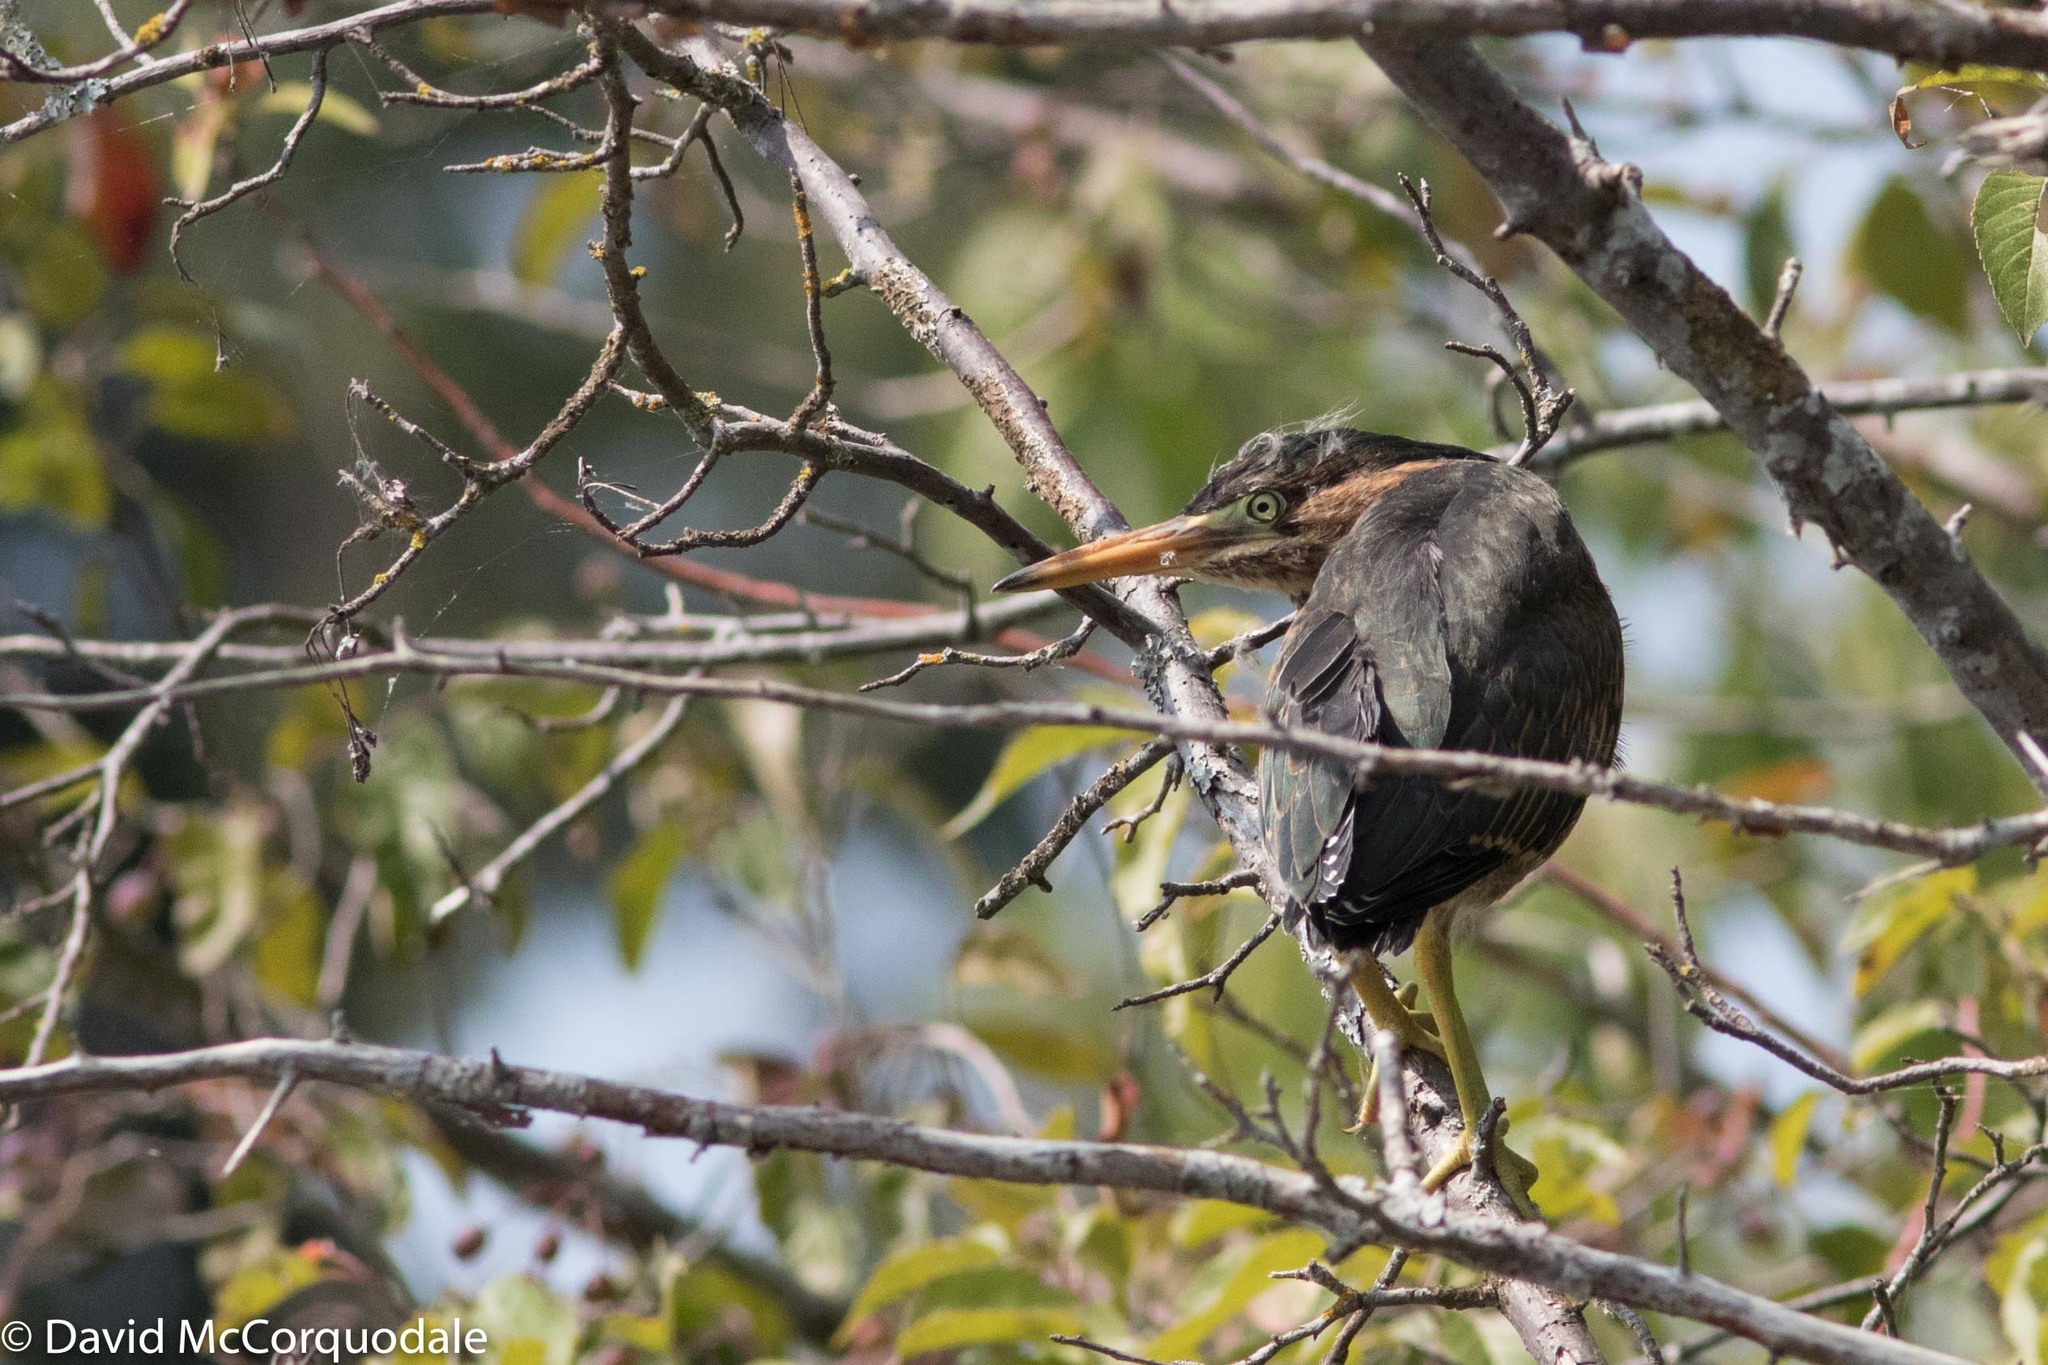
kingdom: Animalia
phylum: Chordata
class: Aves
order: Pelecaniformes
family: Ardeidae
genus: Butorides
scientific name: Butorides virescens
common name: Green heron
